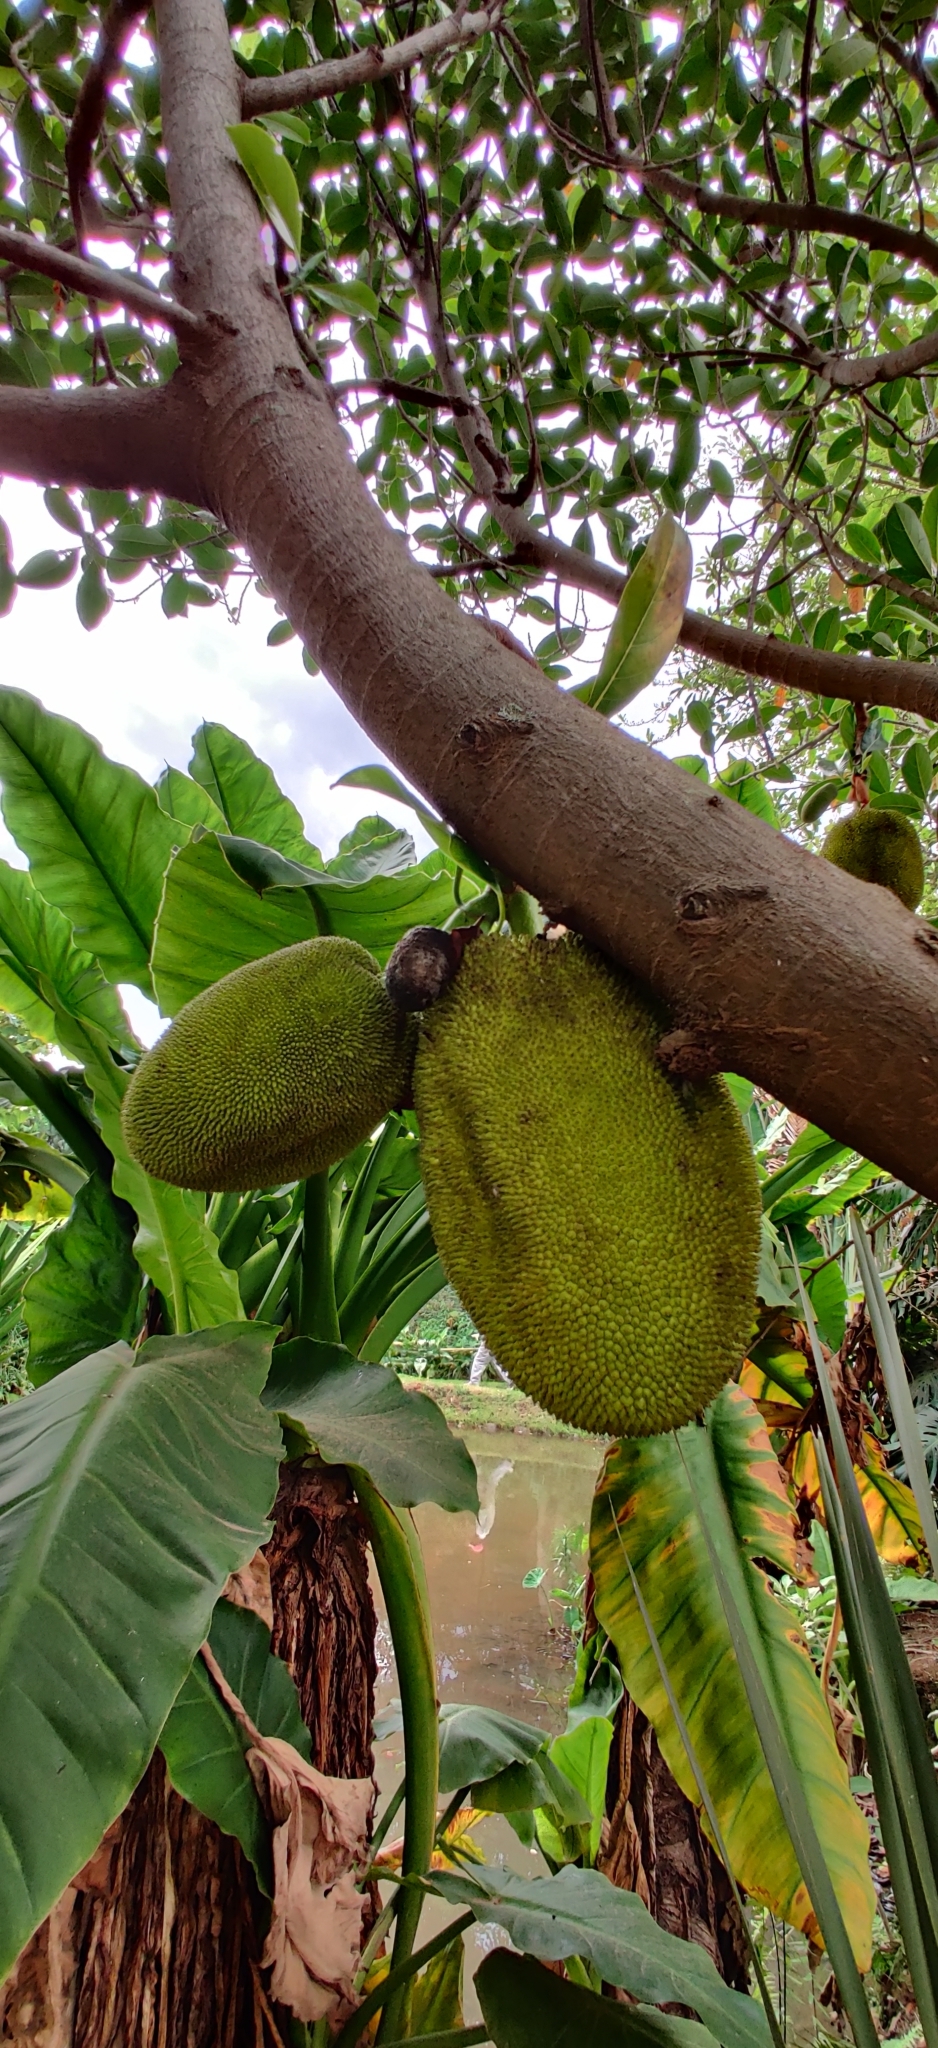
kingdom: Plantae
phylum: Tracheophyta
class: Magnoliopsida
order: Rosales
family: Moraceae
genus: Artocarpus
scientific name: Artocarpus heterophyllus
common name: Jackfruit
